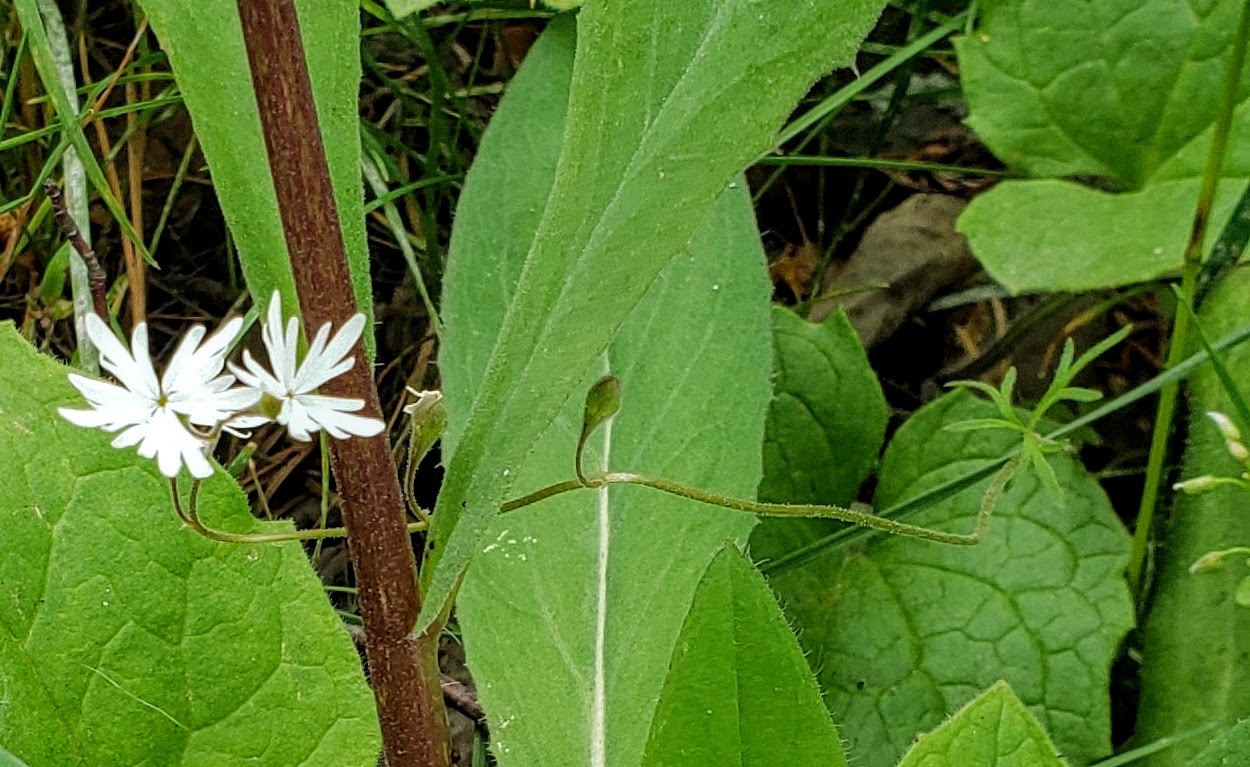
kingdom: Plantae
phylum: Tracheophyta
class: Magnoliopsida
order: Saxifragales
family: Saxifragaceae
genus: Lithophragma
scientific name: Lithophragma parviflorum
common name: Small-flowered fringe-cup
